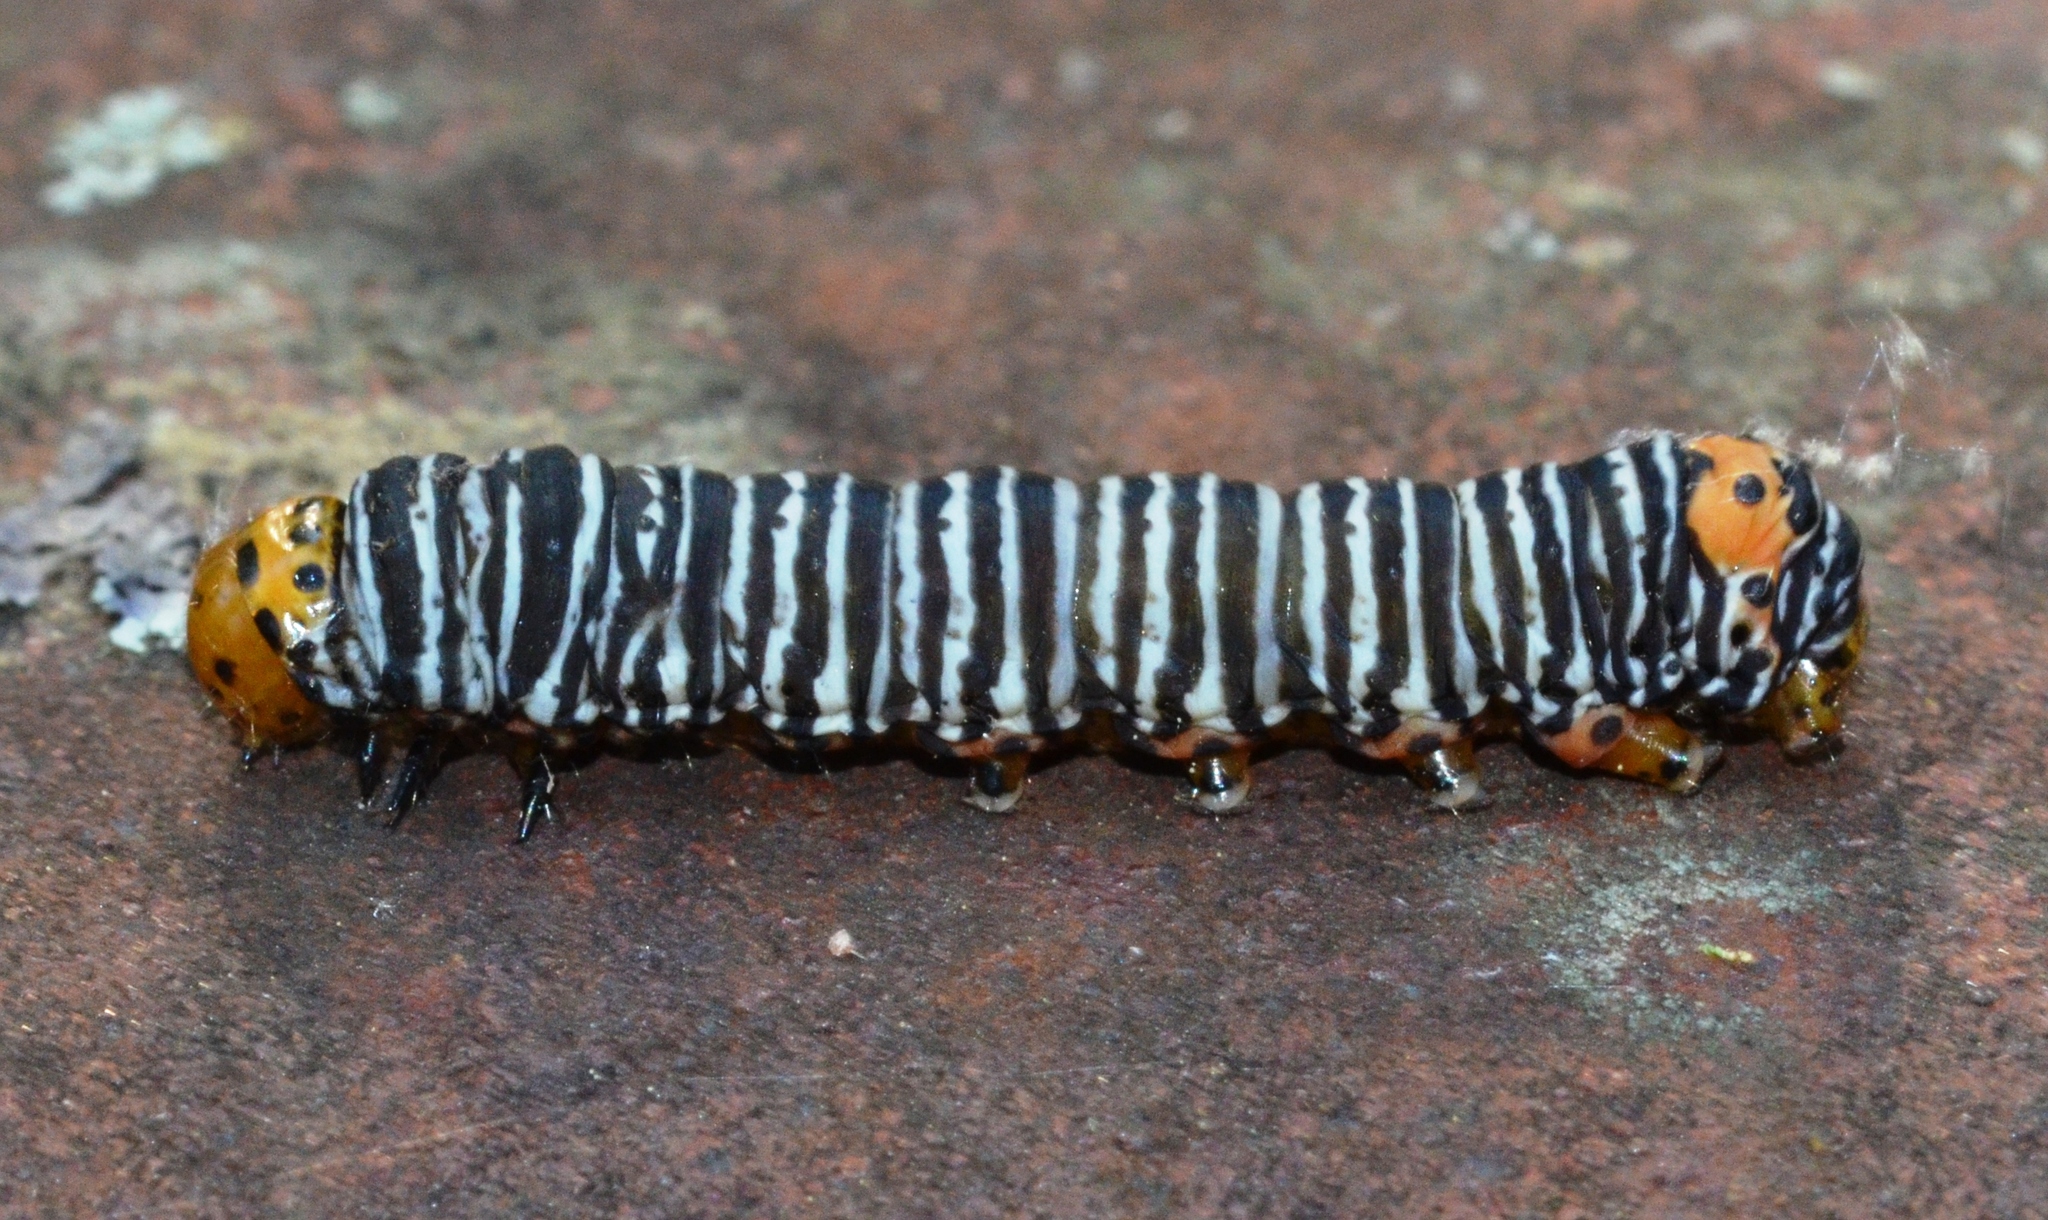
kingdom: Animalia
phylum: Arthropoda
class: Insecta
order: Lepidoptera
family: Noctuidae
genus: Psychomorpha
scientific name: Psychomorpha epimenis
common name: Grapevine epimenis moth
